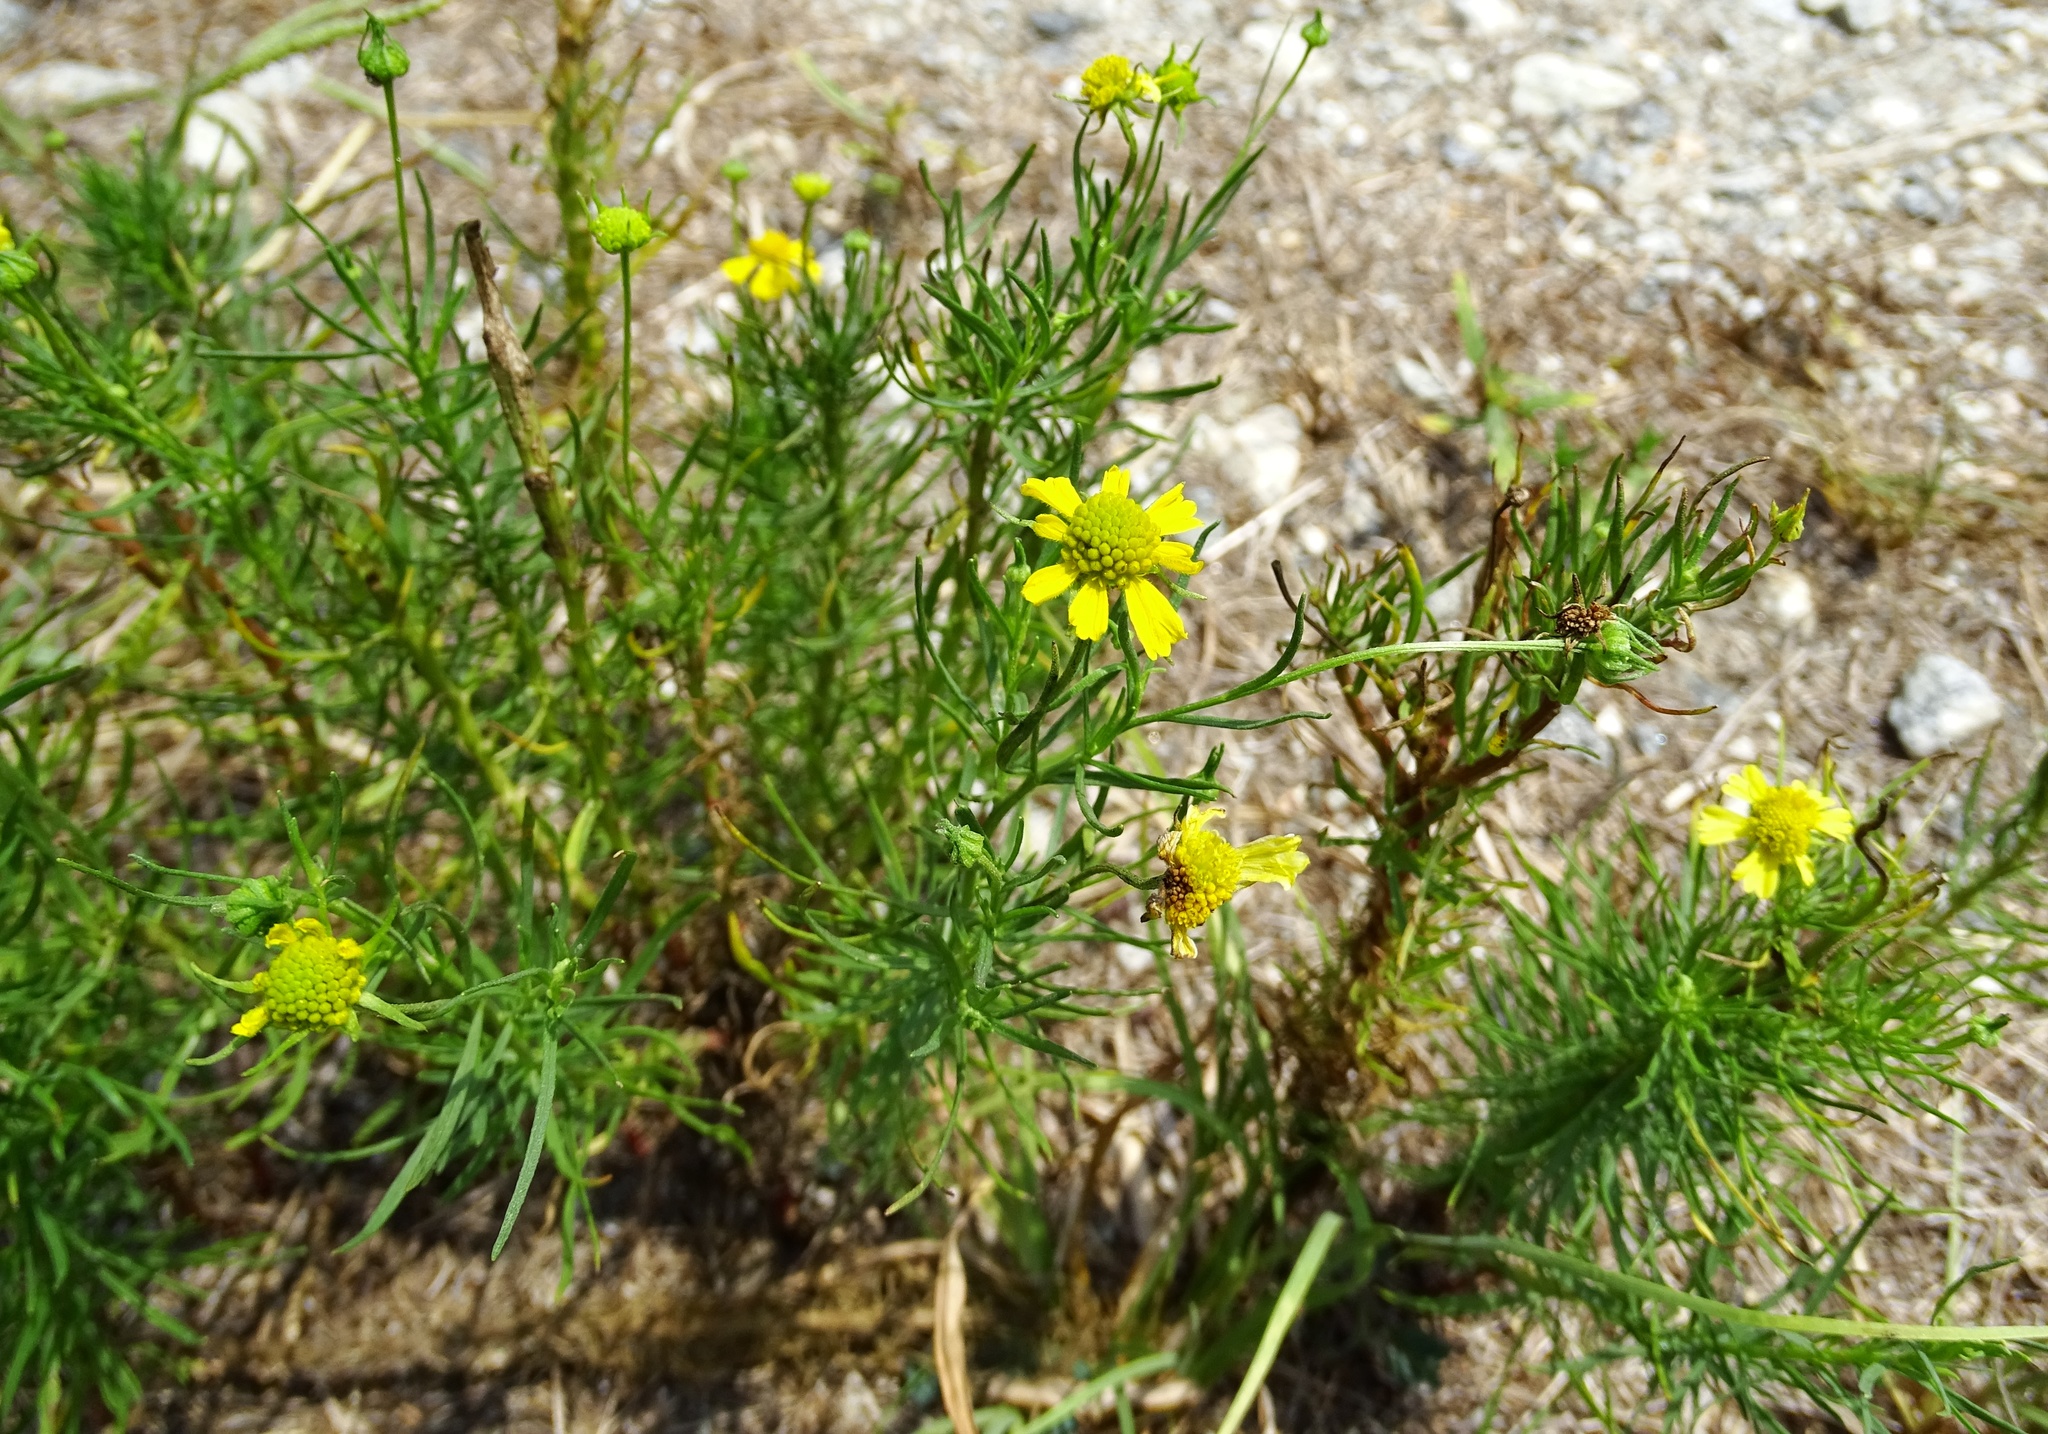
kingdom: Plantae
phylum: Tracheophyta
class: Magnoliopsida
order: Asterales
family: Asteraceae
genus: Helenium
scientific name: Helenium amarum
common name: Bitter sneezeweed
